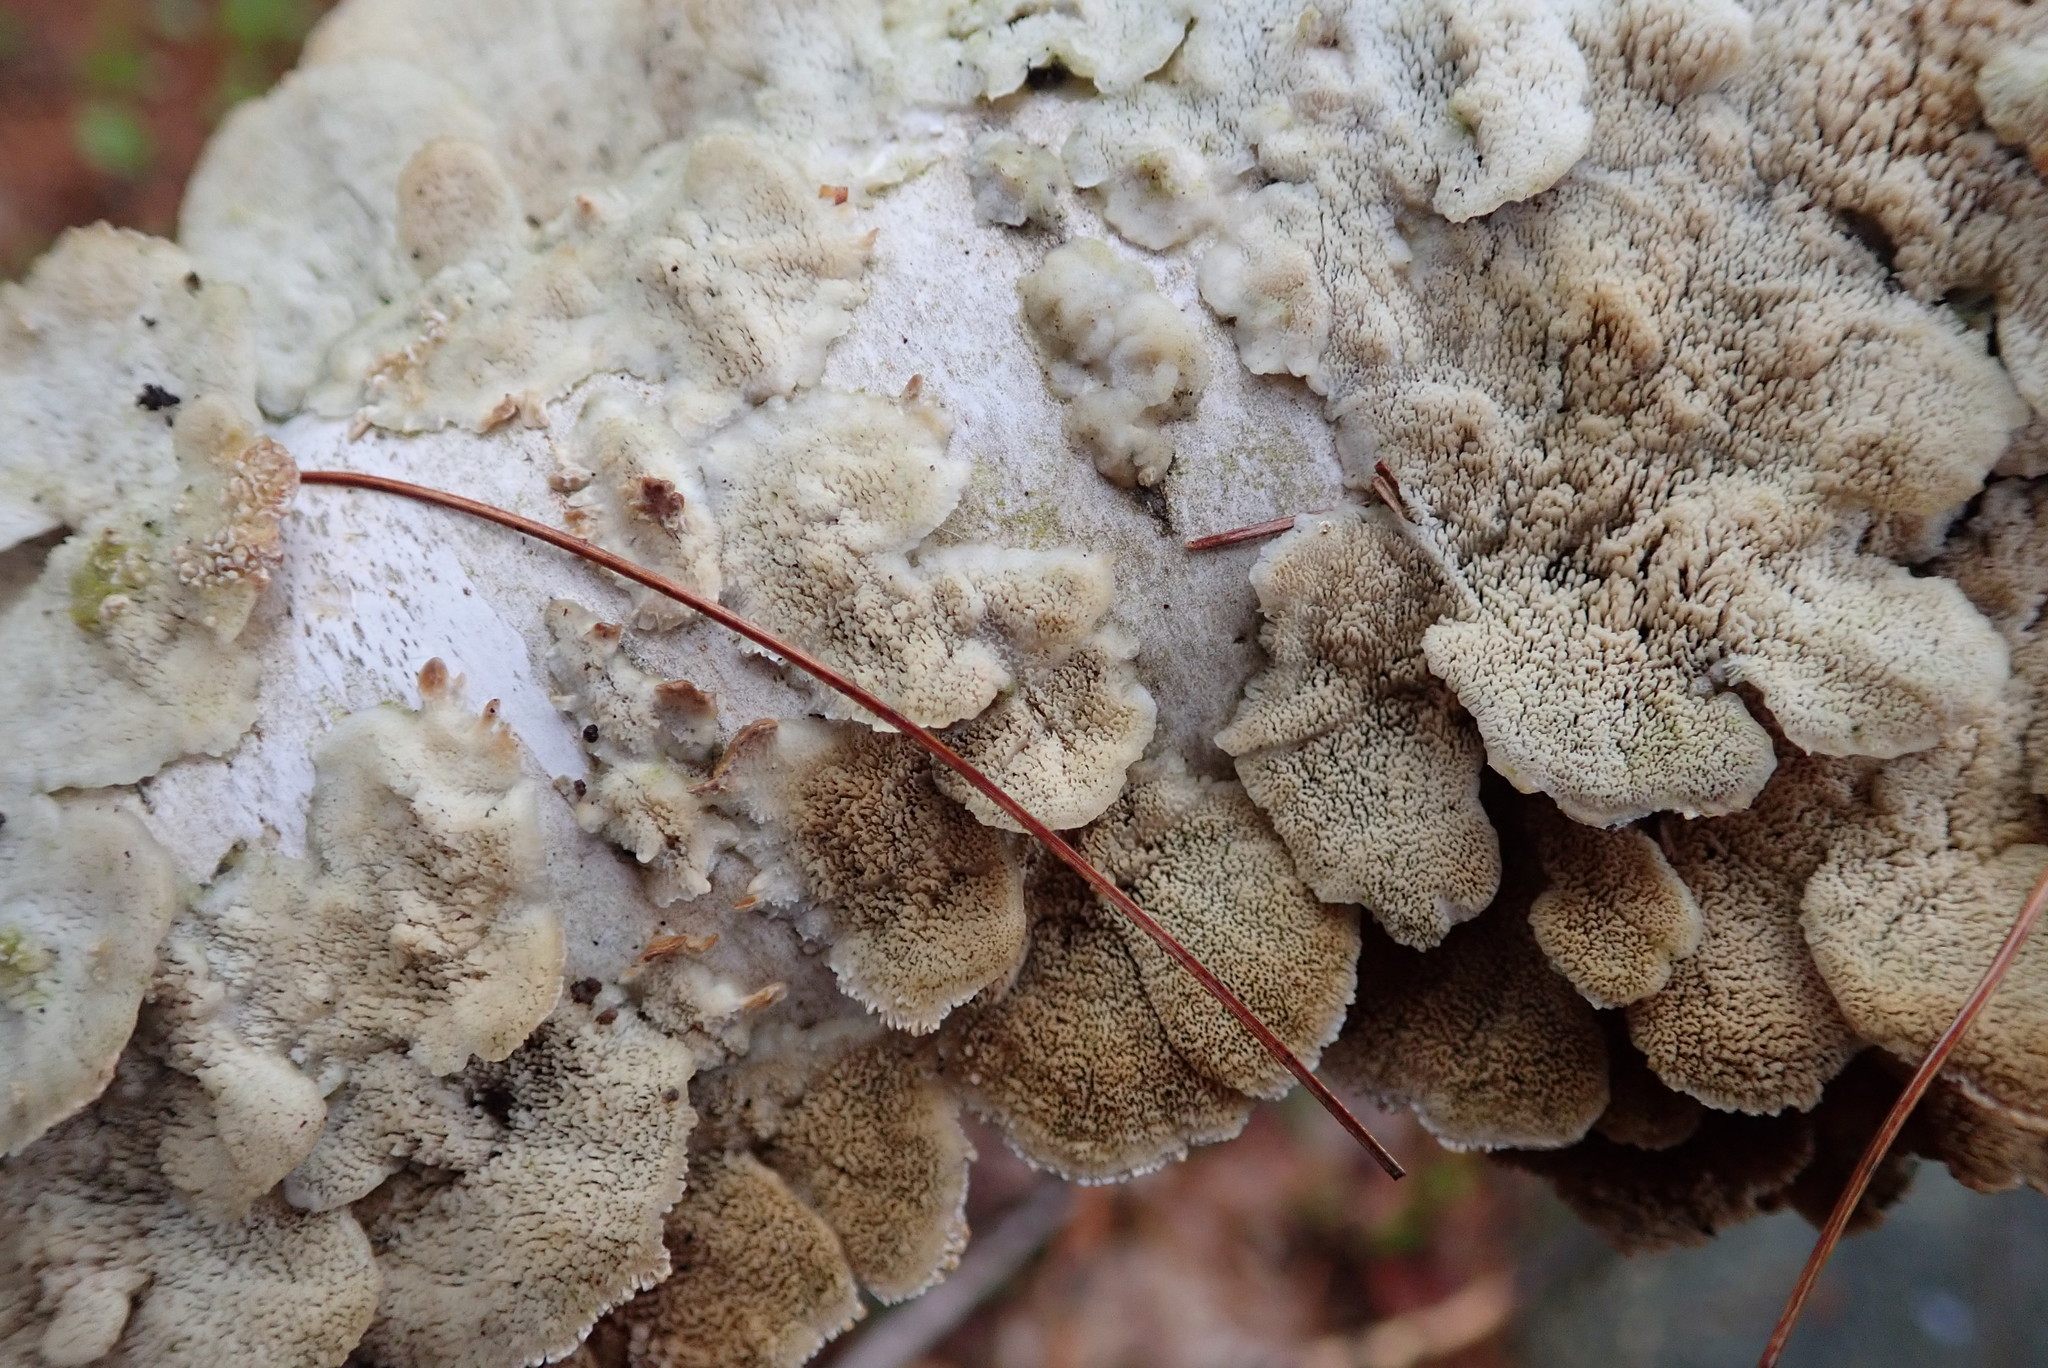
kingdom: Fungi
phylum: Basidiomycota
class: Agaricomycetes
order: Polyporales
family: Irpicaceae
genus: Irpex
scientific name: Irpex lacteus
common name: Milk-white toothed polypore
